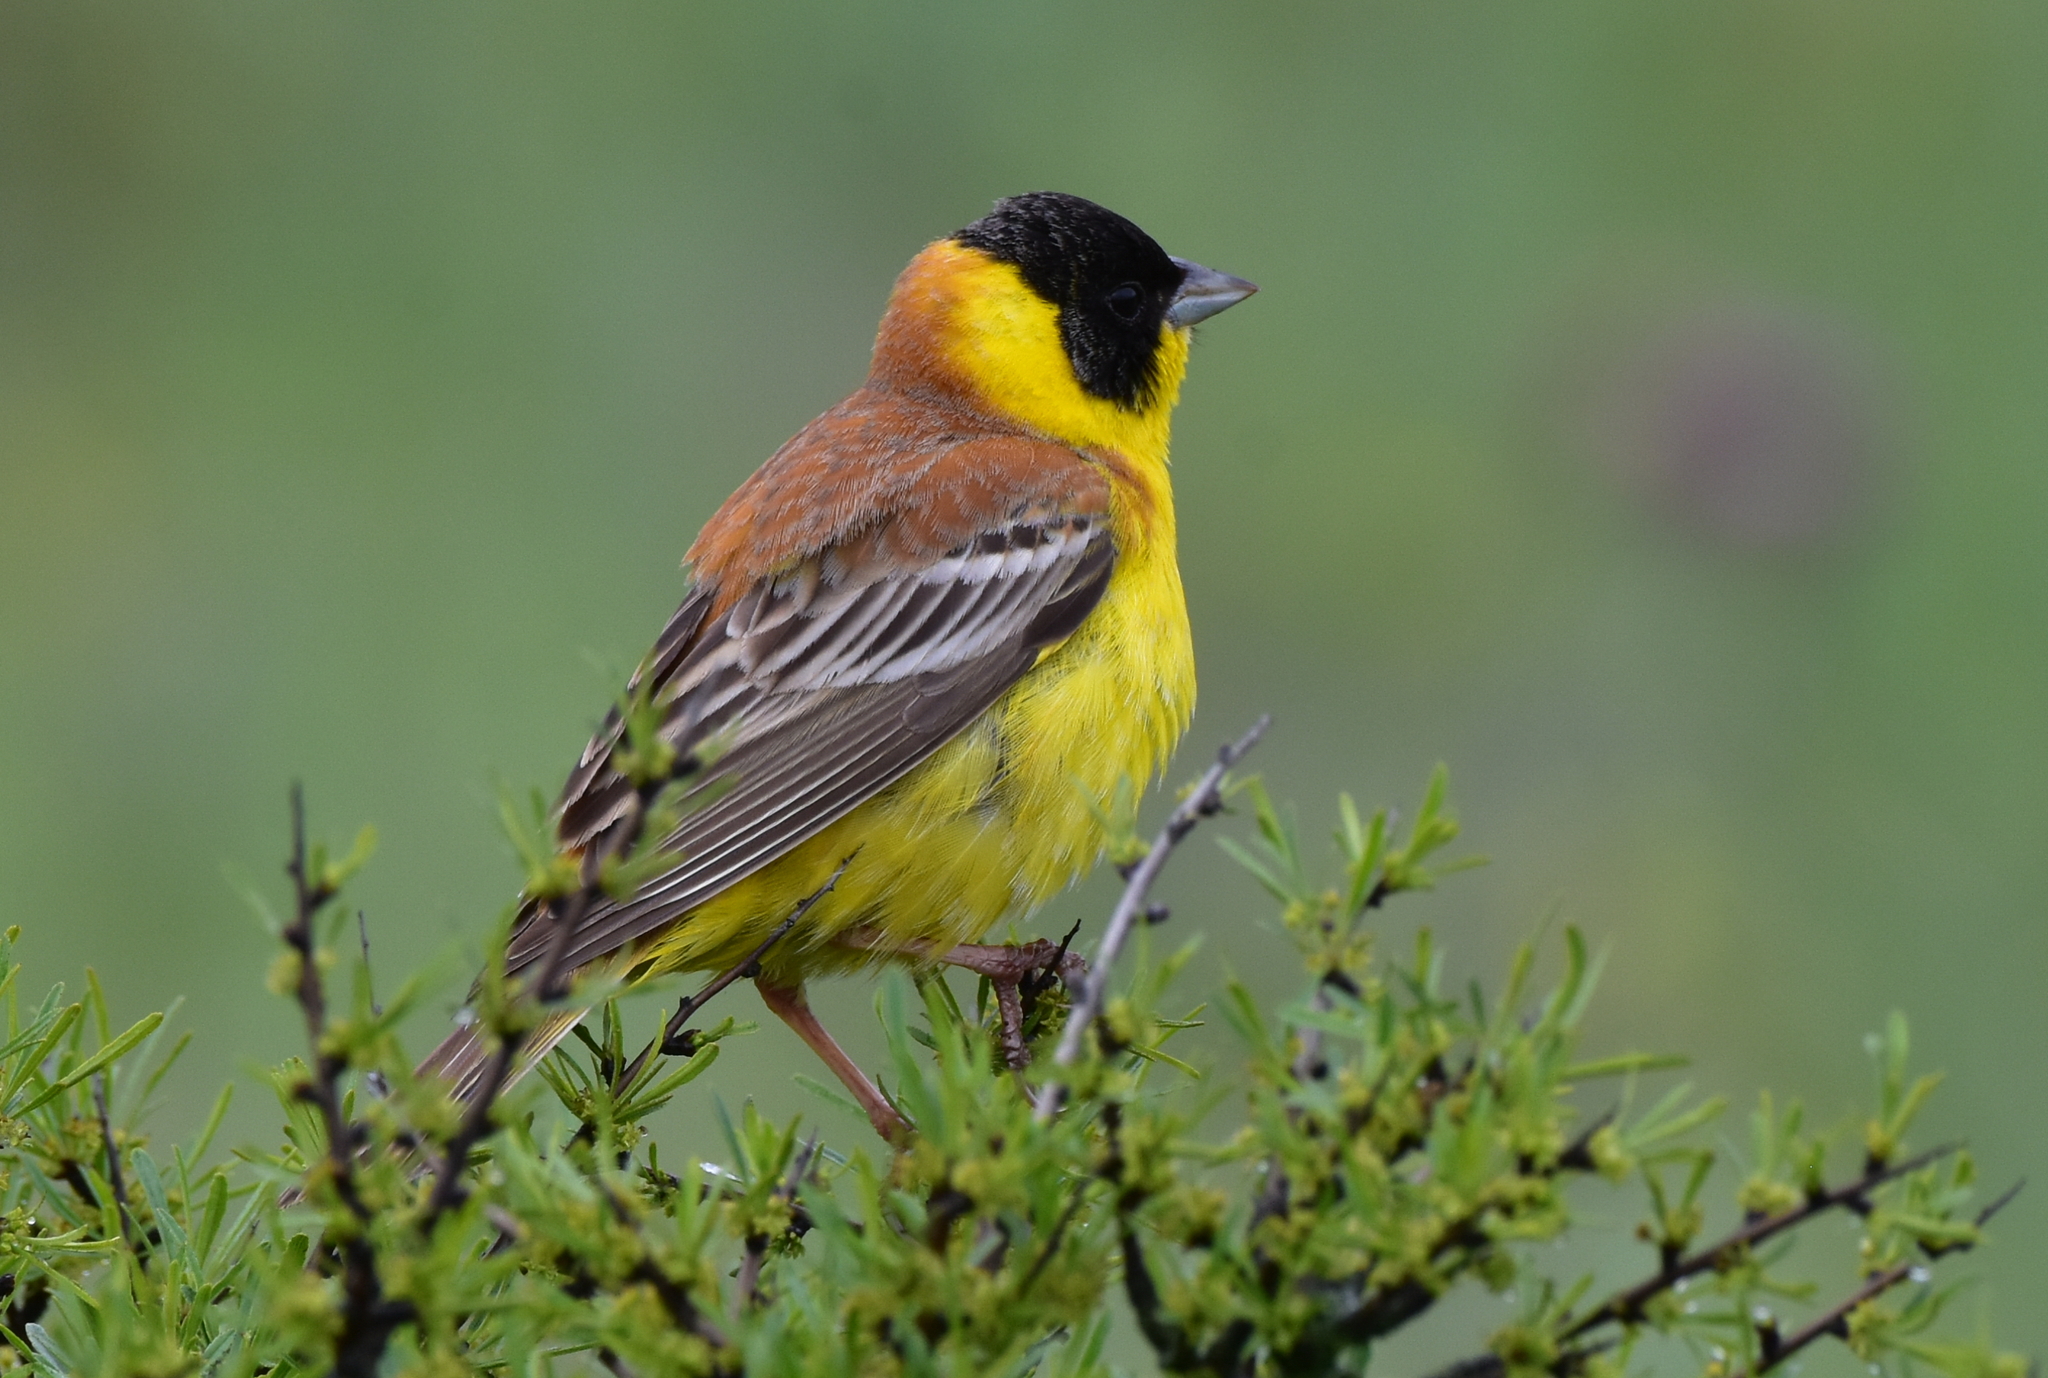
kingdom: Animalia
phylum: Chordata
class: Aves
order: Passeriformes
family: Emberizidae
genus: Emberiza
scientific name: Emberiza melanocephala
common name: Black-headed bunting
